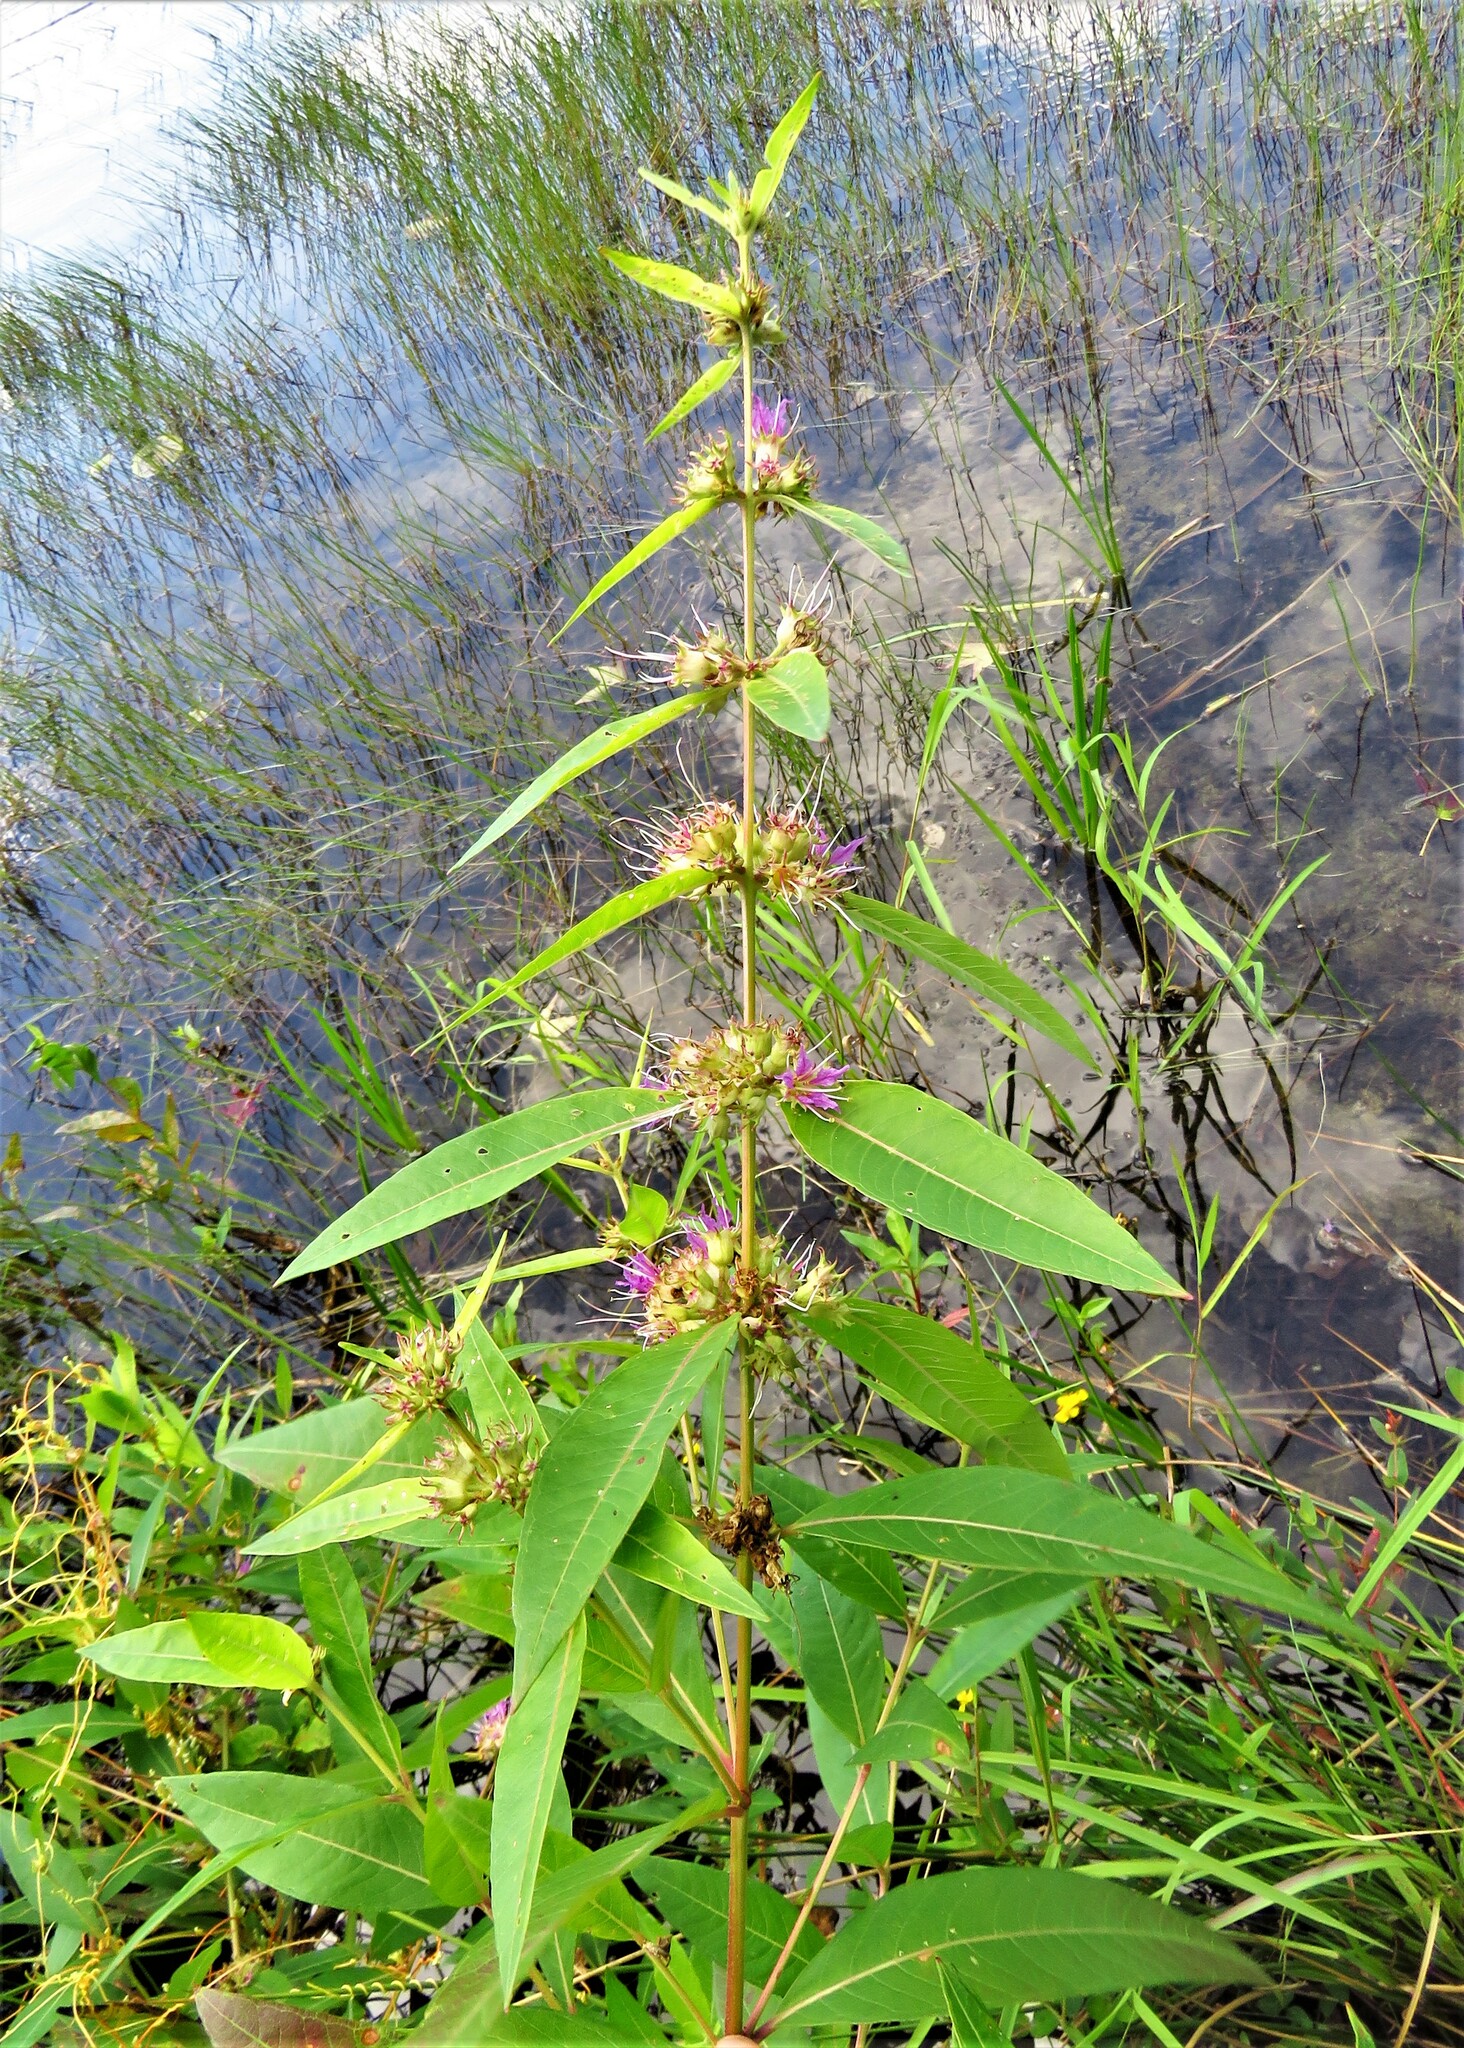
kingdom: Plantae
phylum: Tracheophyta
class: Magnoliopsida
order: Myrtales
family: Lythraceae
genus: Decodon
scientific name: Decodon verticillatus
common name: Hairy swamp loosestrife
